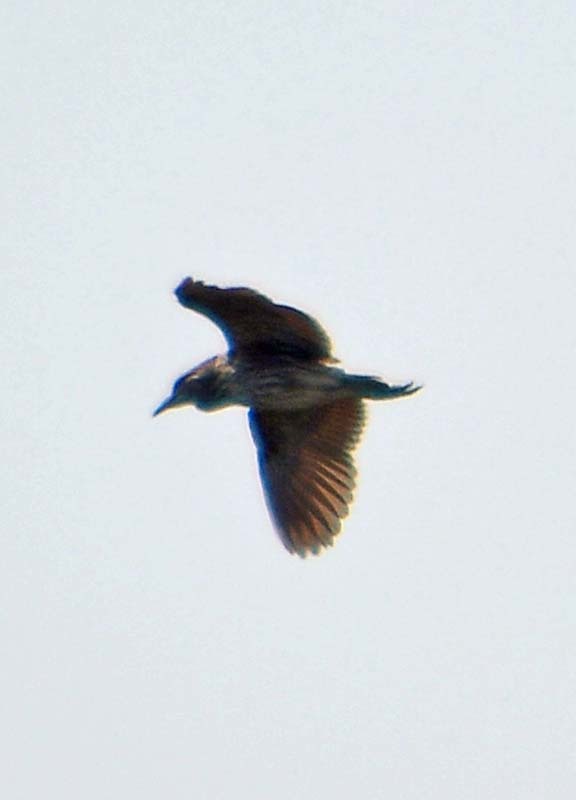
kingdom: Animalia
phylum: Chordata
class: Aves
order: Pelecaniformes
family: Ardeidae
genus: Nycticorax
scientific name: Nycticorax nycticorax
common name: Black-crowned night heron
